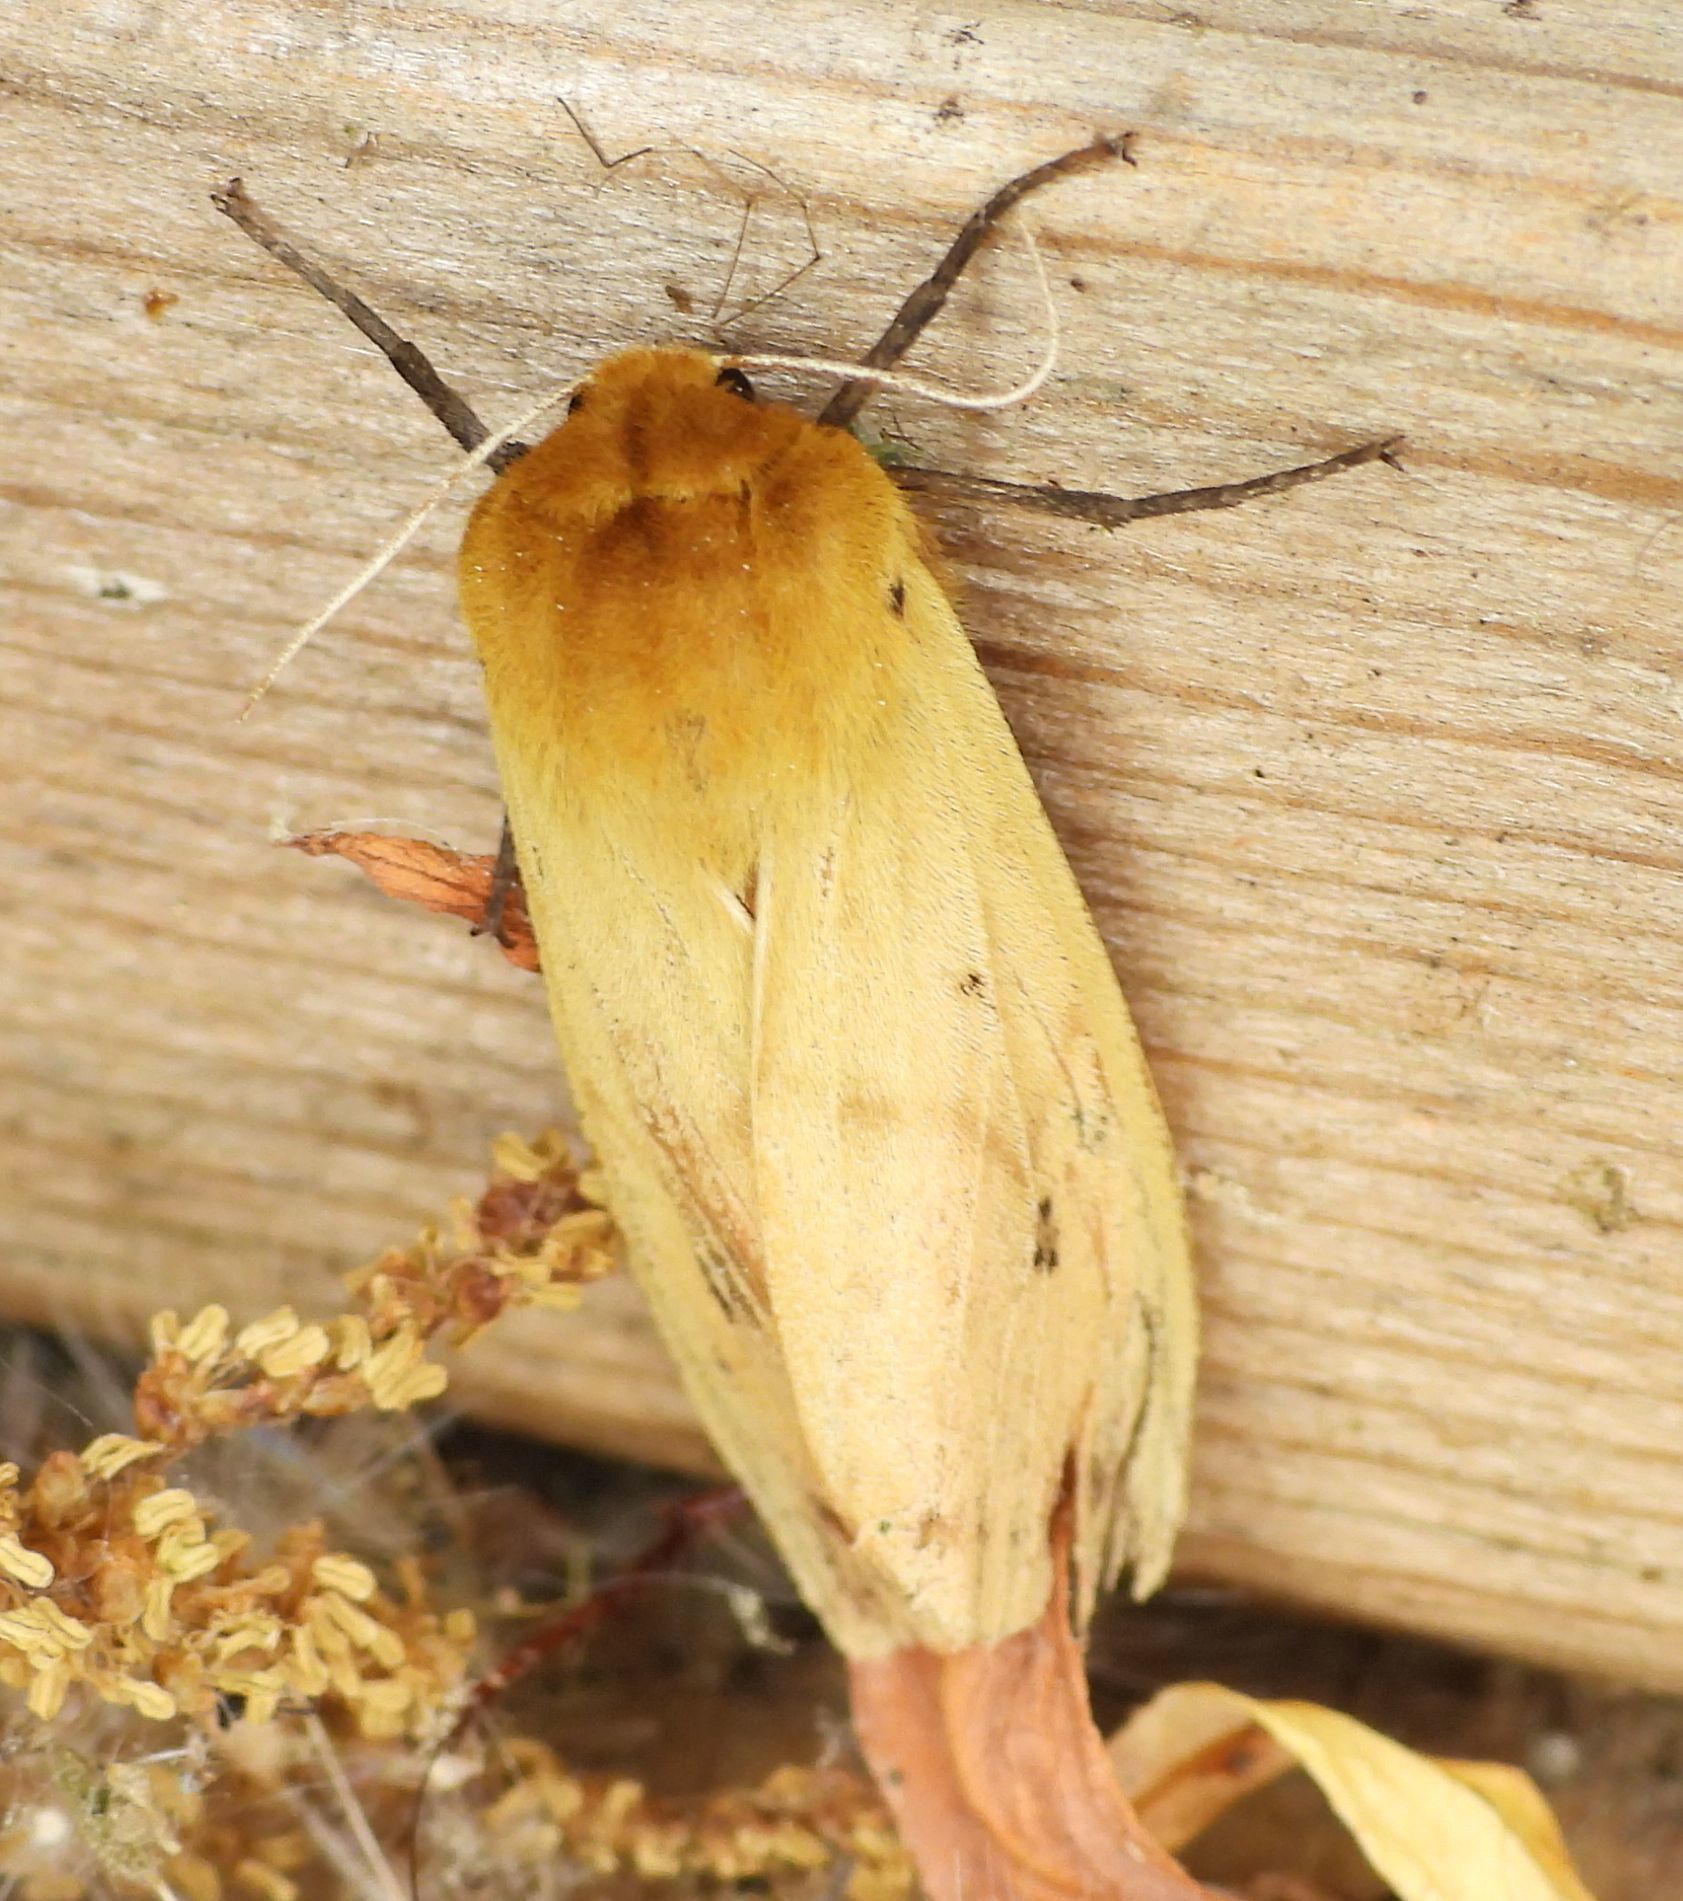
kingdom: Animalia
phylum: Arthropoda
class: Insecta
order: Lepidoptera
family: Erebidae
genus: Pyrrharctia
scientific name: Pyrrharctia isabella
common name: Isabella tiger moth
